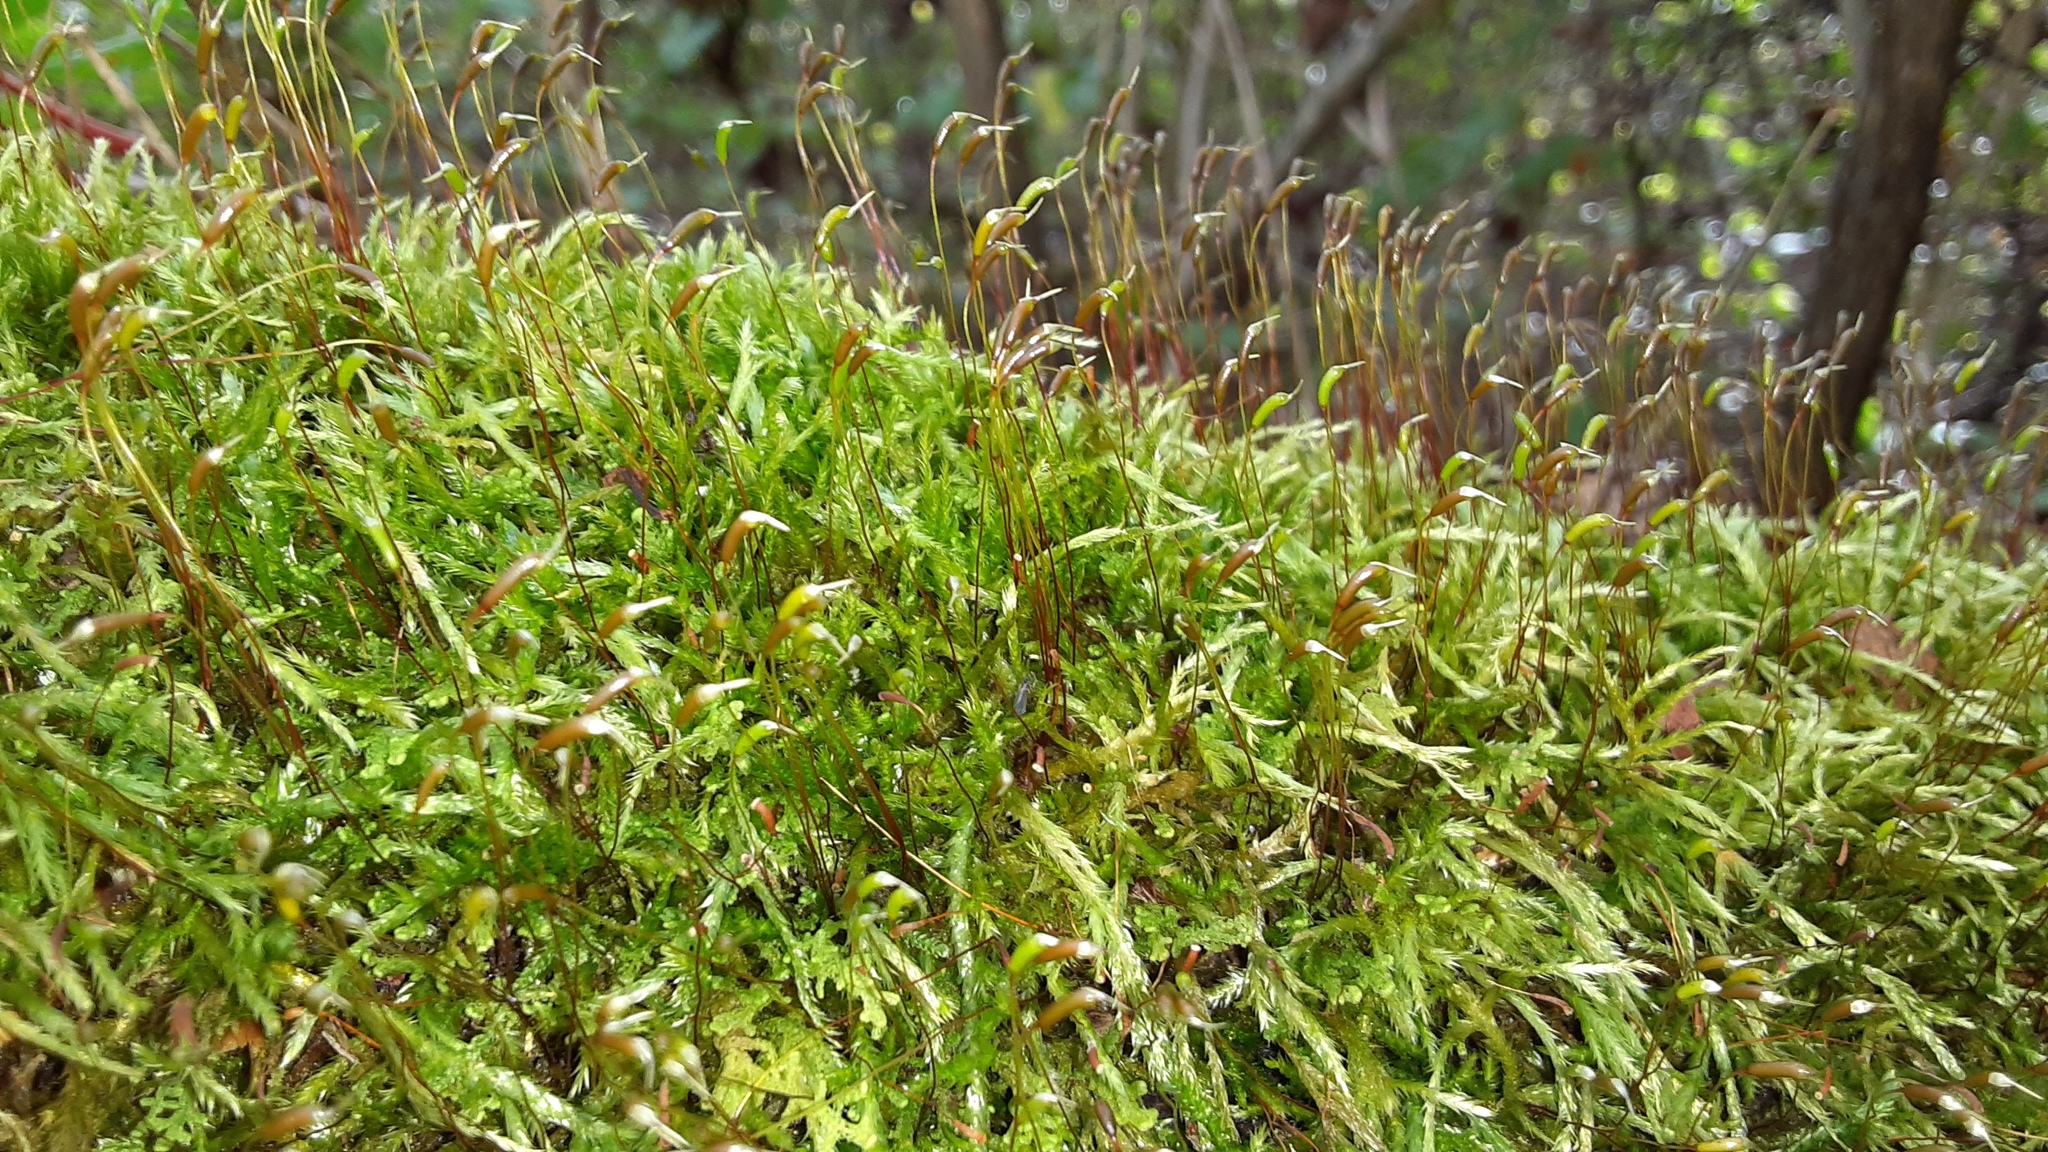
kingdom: Plantae
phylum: Bryophyta
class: Bryopsida
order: Hypnales
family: Callicladiaceae
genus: Callicladium
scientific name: Callicladium haldanianum
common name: Beautiful branch moss
